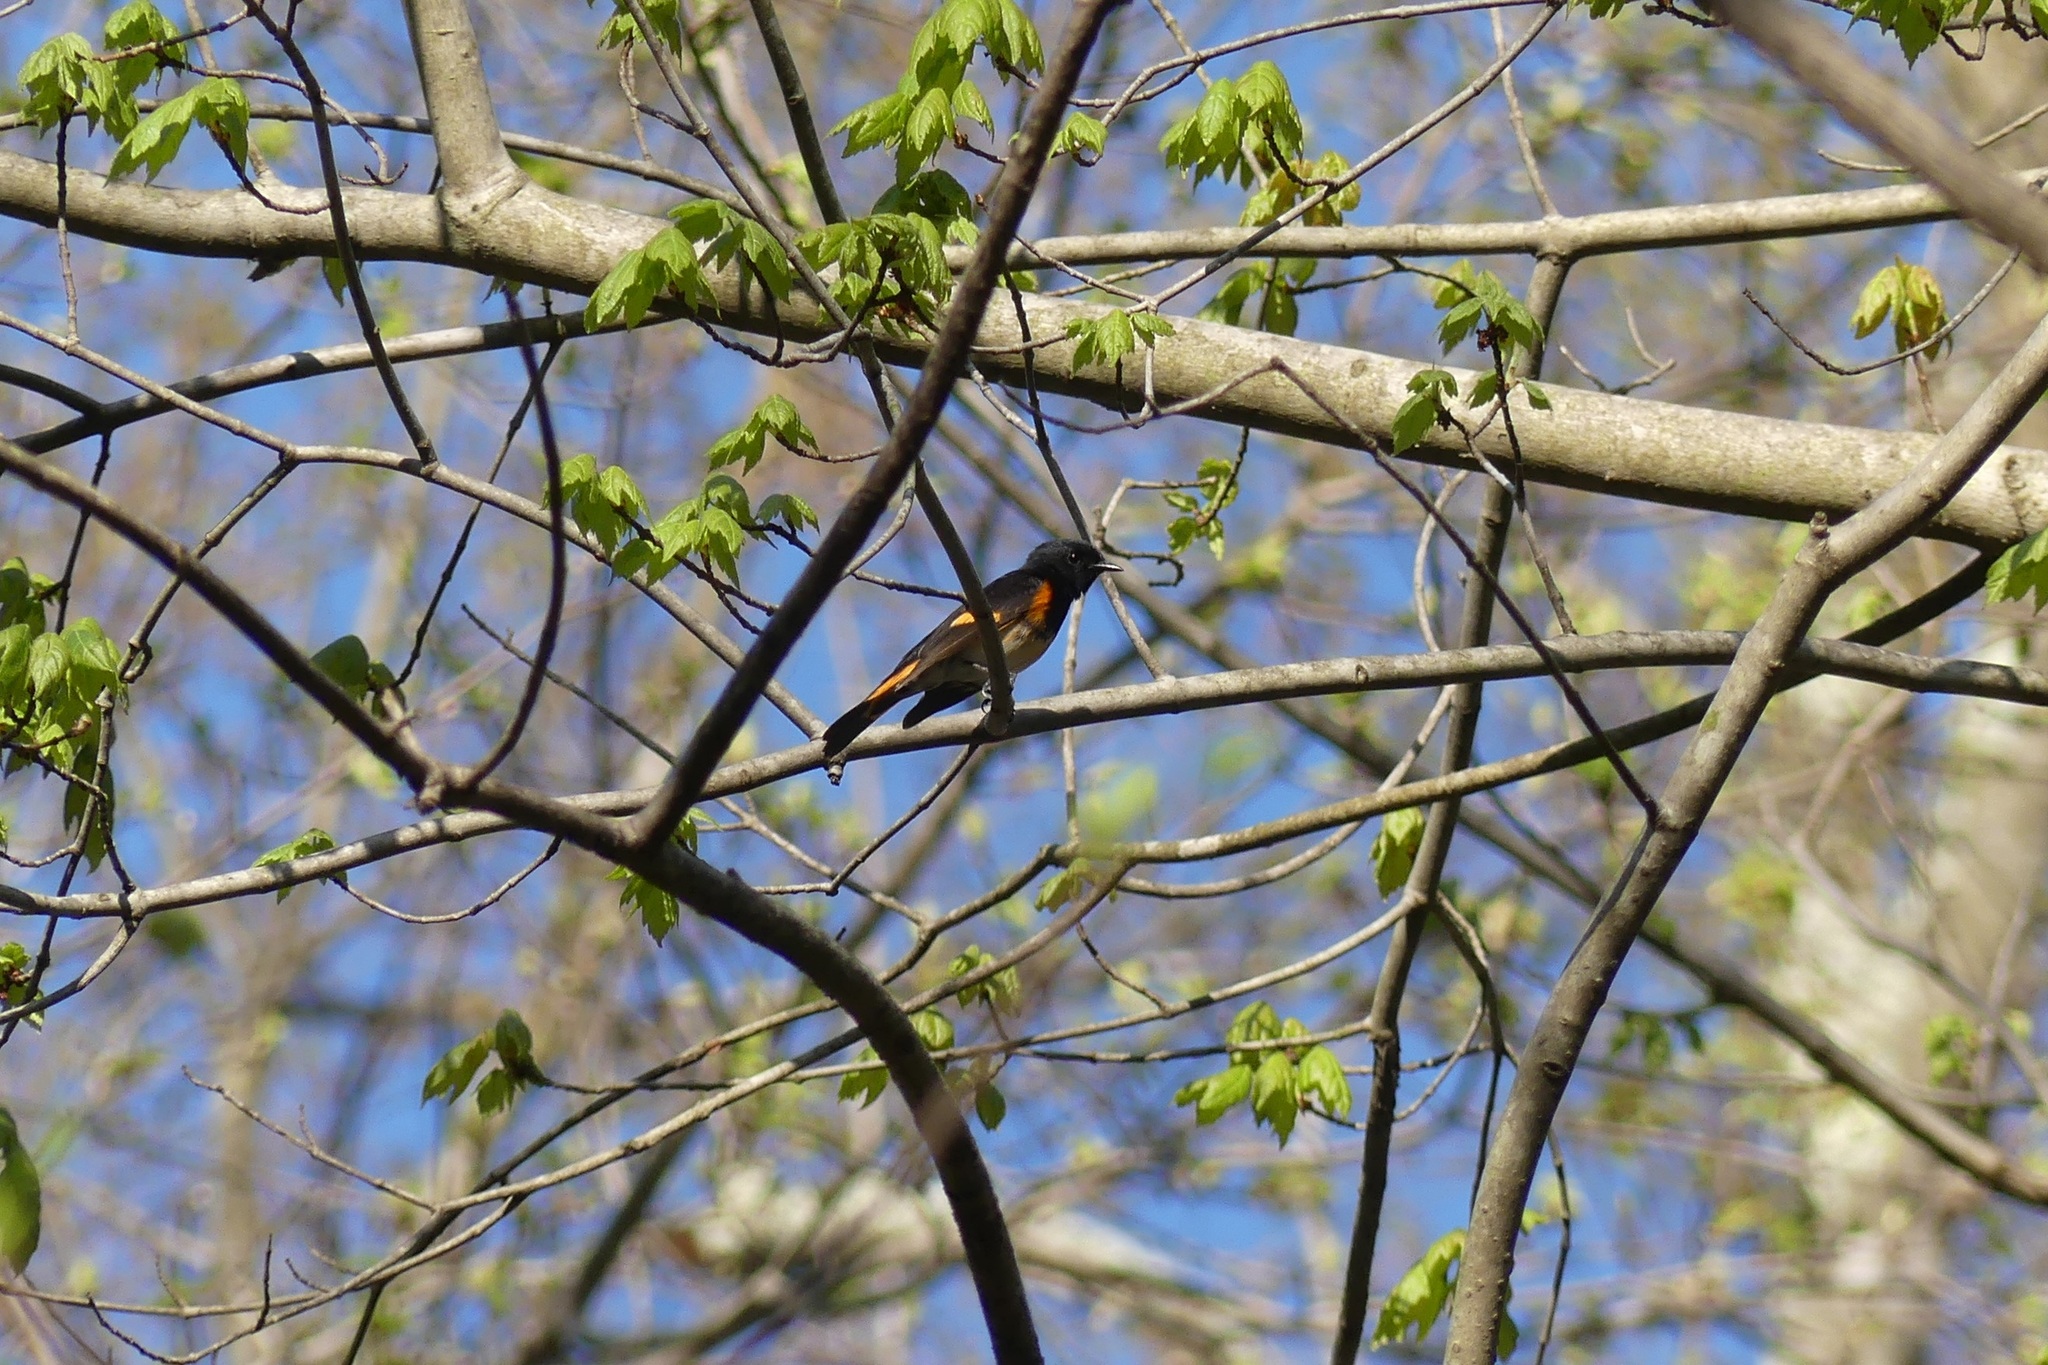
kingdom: Animalia
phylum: Chordata
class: Aves
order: Passeriformes
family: Parulidae
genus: Setophaga
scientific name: Setophaga ruticilla
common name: American redstart
